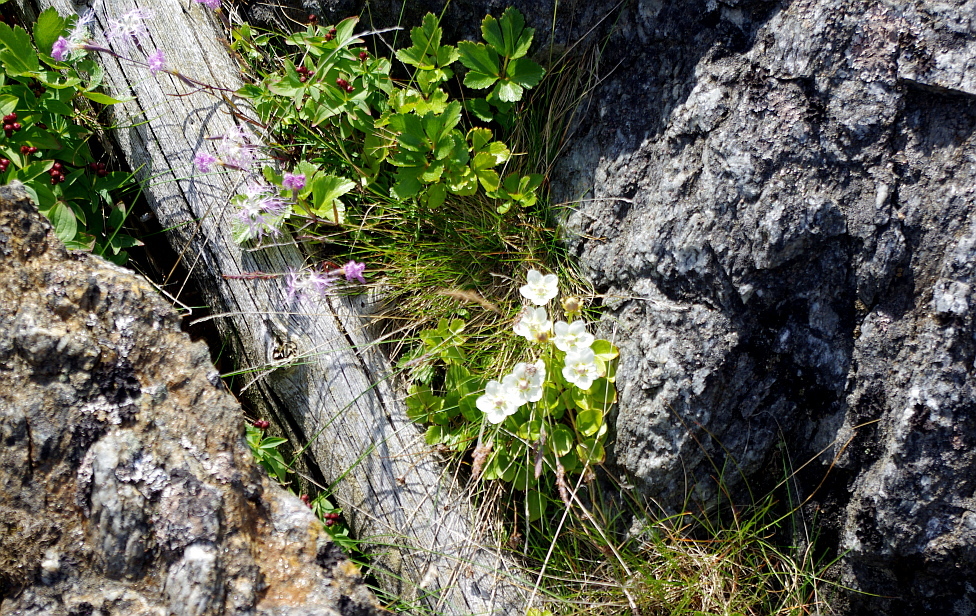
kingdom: Plantae
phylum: Tracheophyta
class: Magnoliopsida
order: Cornales
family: Cornaceae
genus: Cornus
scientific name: Cornus suecica
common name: Dwarf cornel
